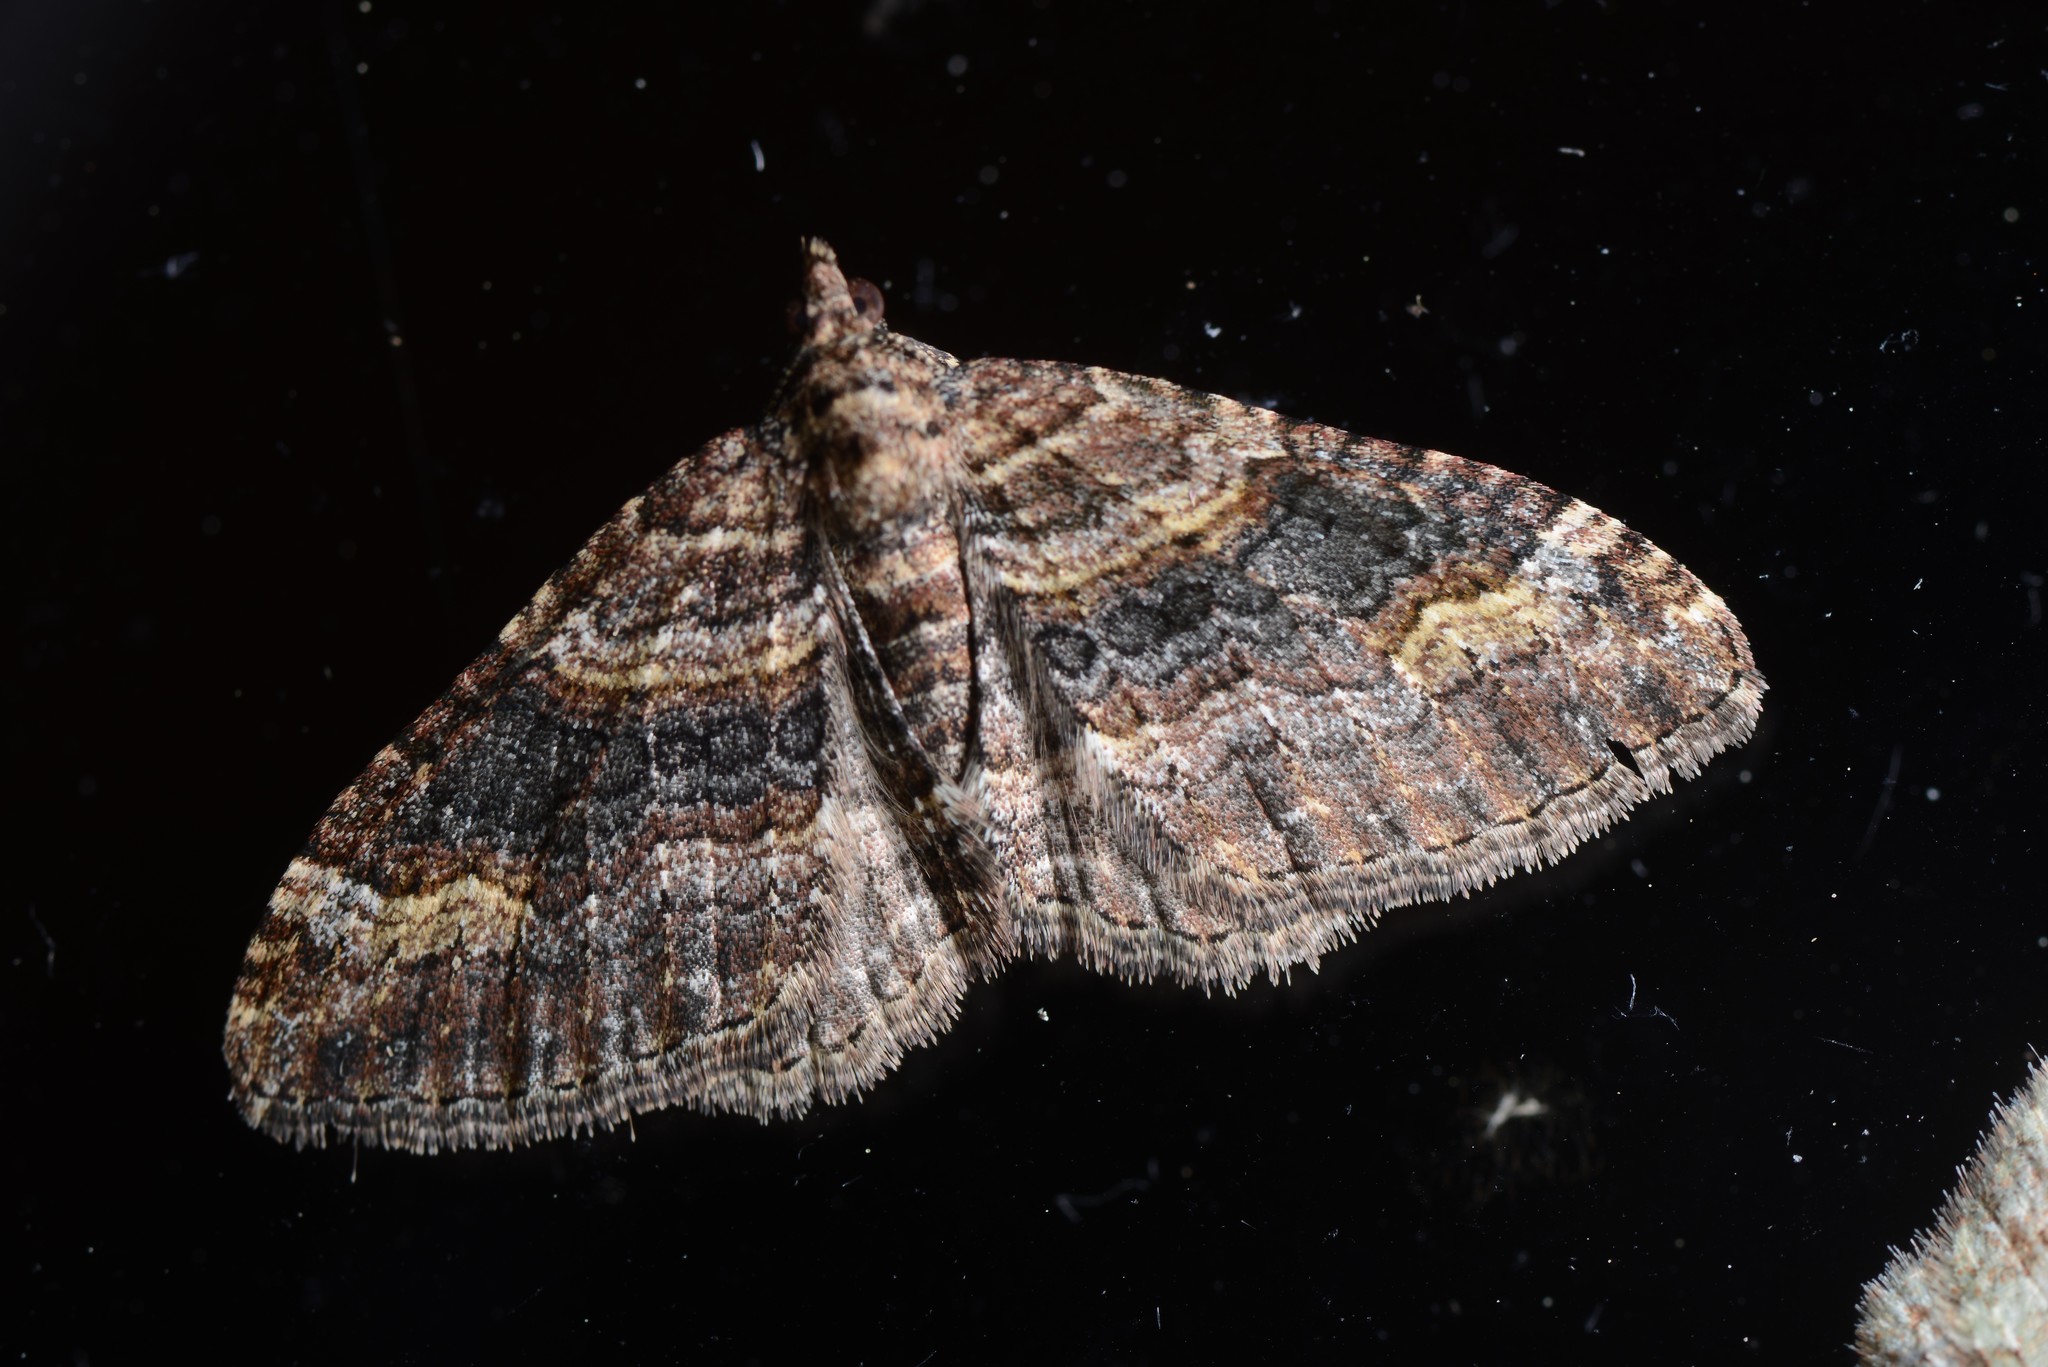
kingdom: Animalia
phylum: Arthropoda
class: Insecta
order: Lepidoptera
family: Geometridae
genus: Epyaxa
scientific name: Epyaxa lucidata
